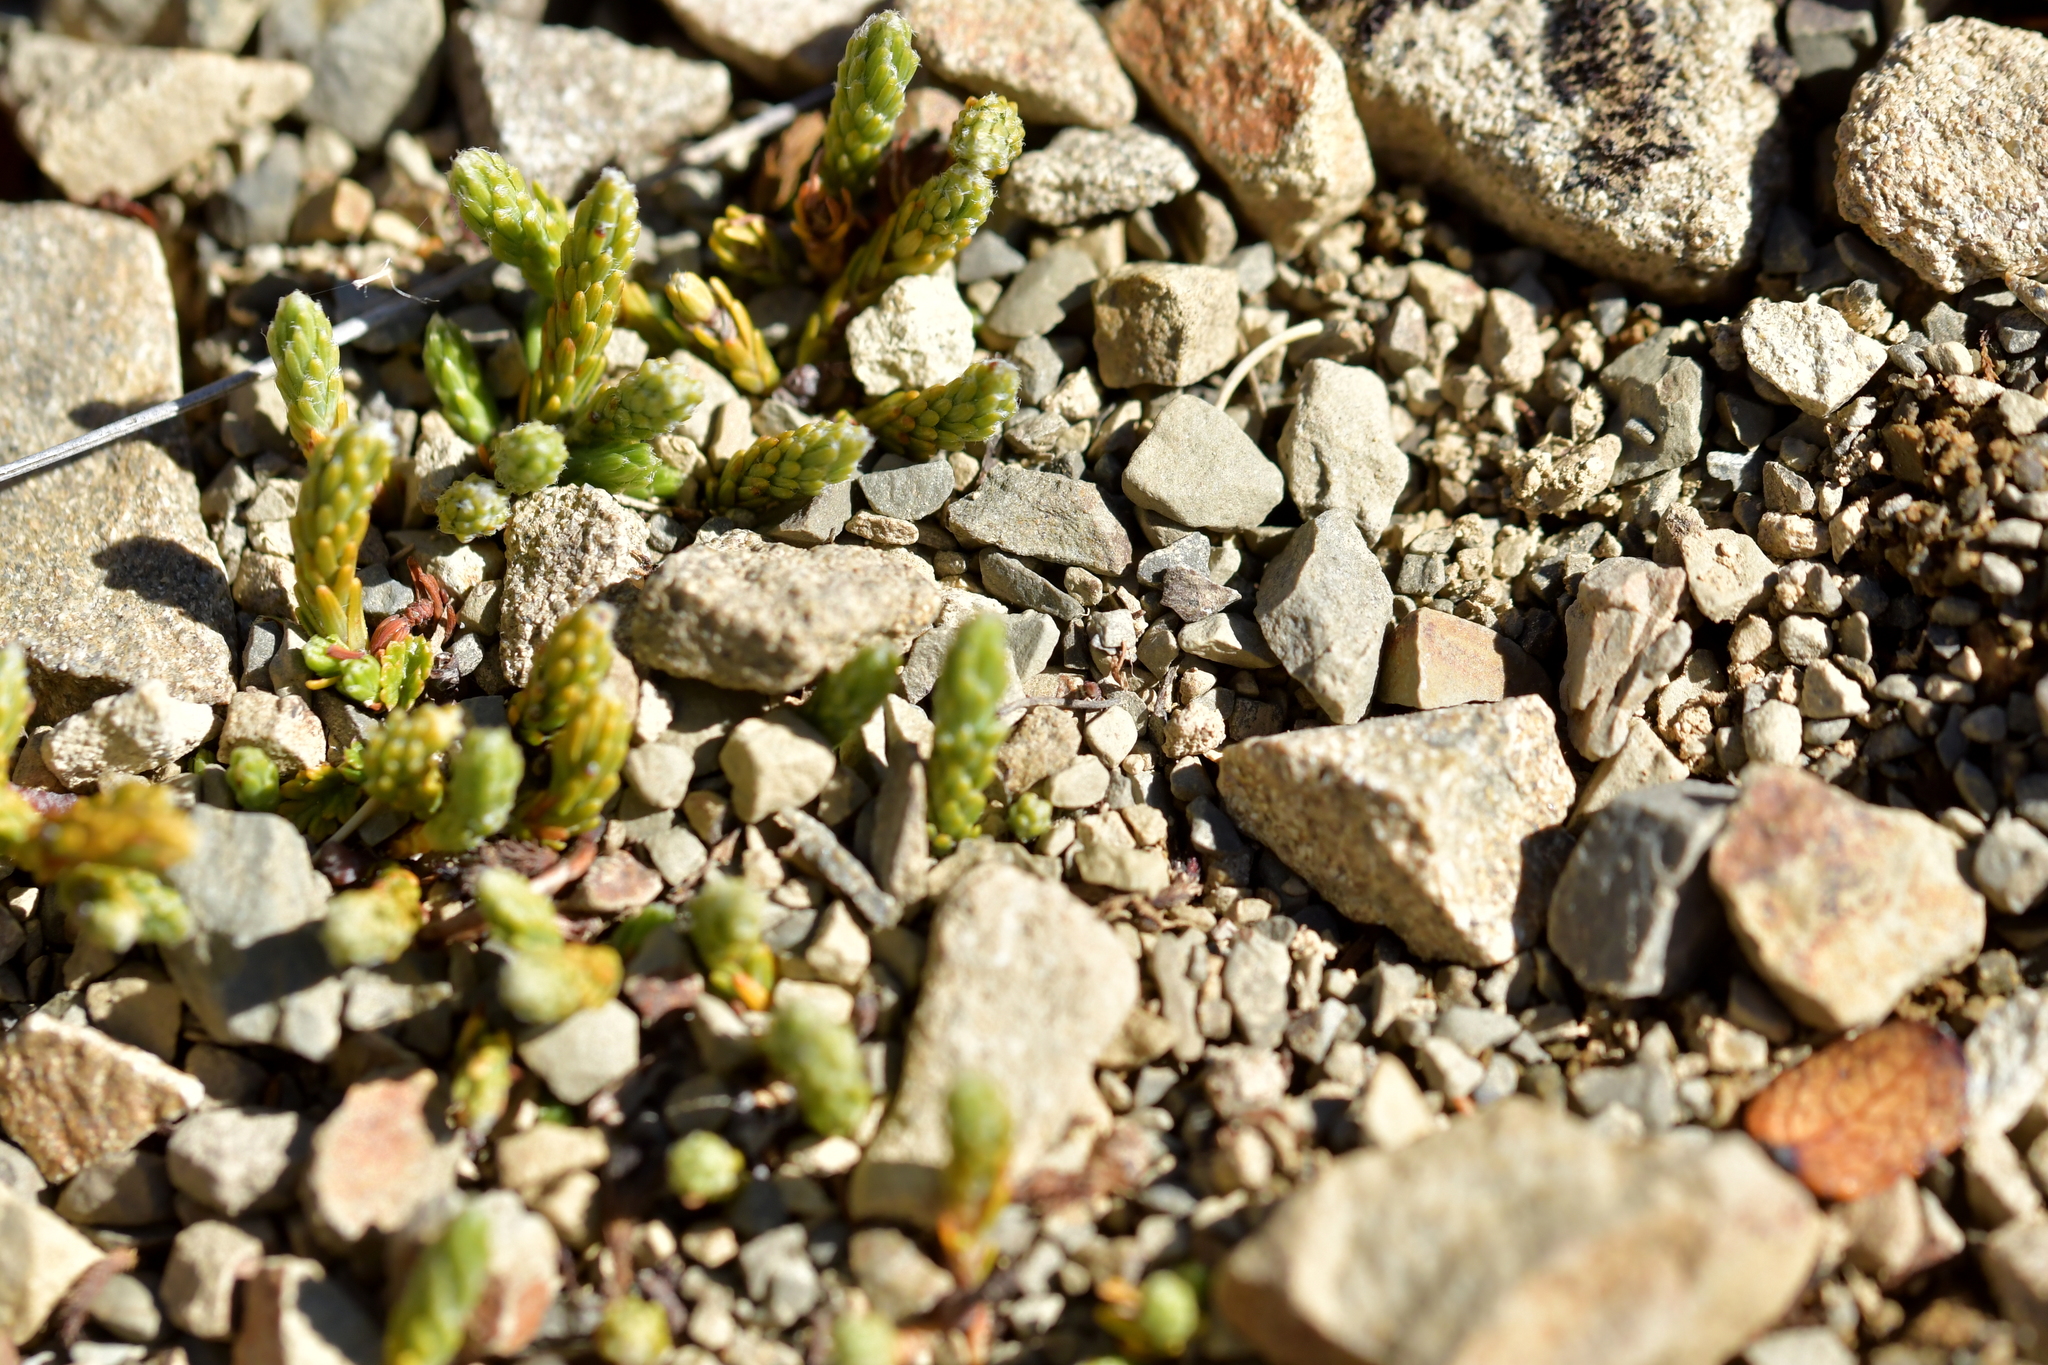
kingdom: Plantae
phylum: Tracheophyta
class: Magnoliopsida
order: Malvales
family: Thymelaeaceae
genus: Kelleria
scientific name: Kelleria dieffenbachii
